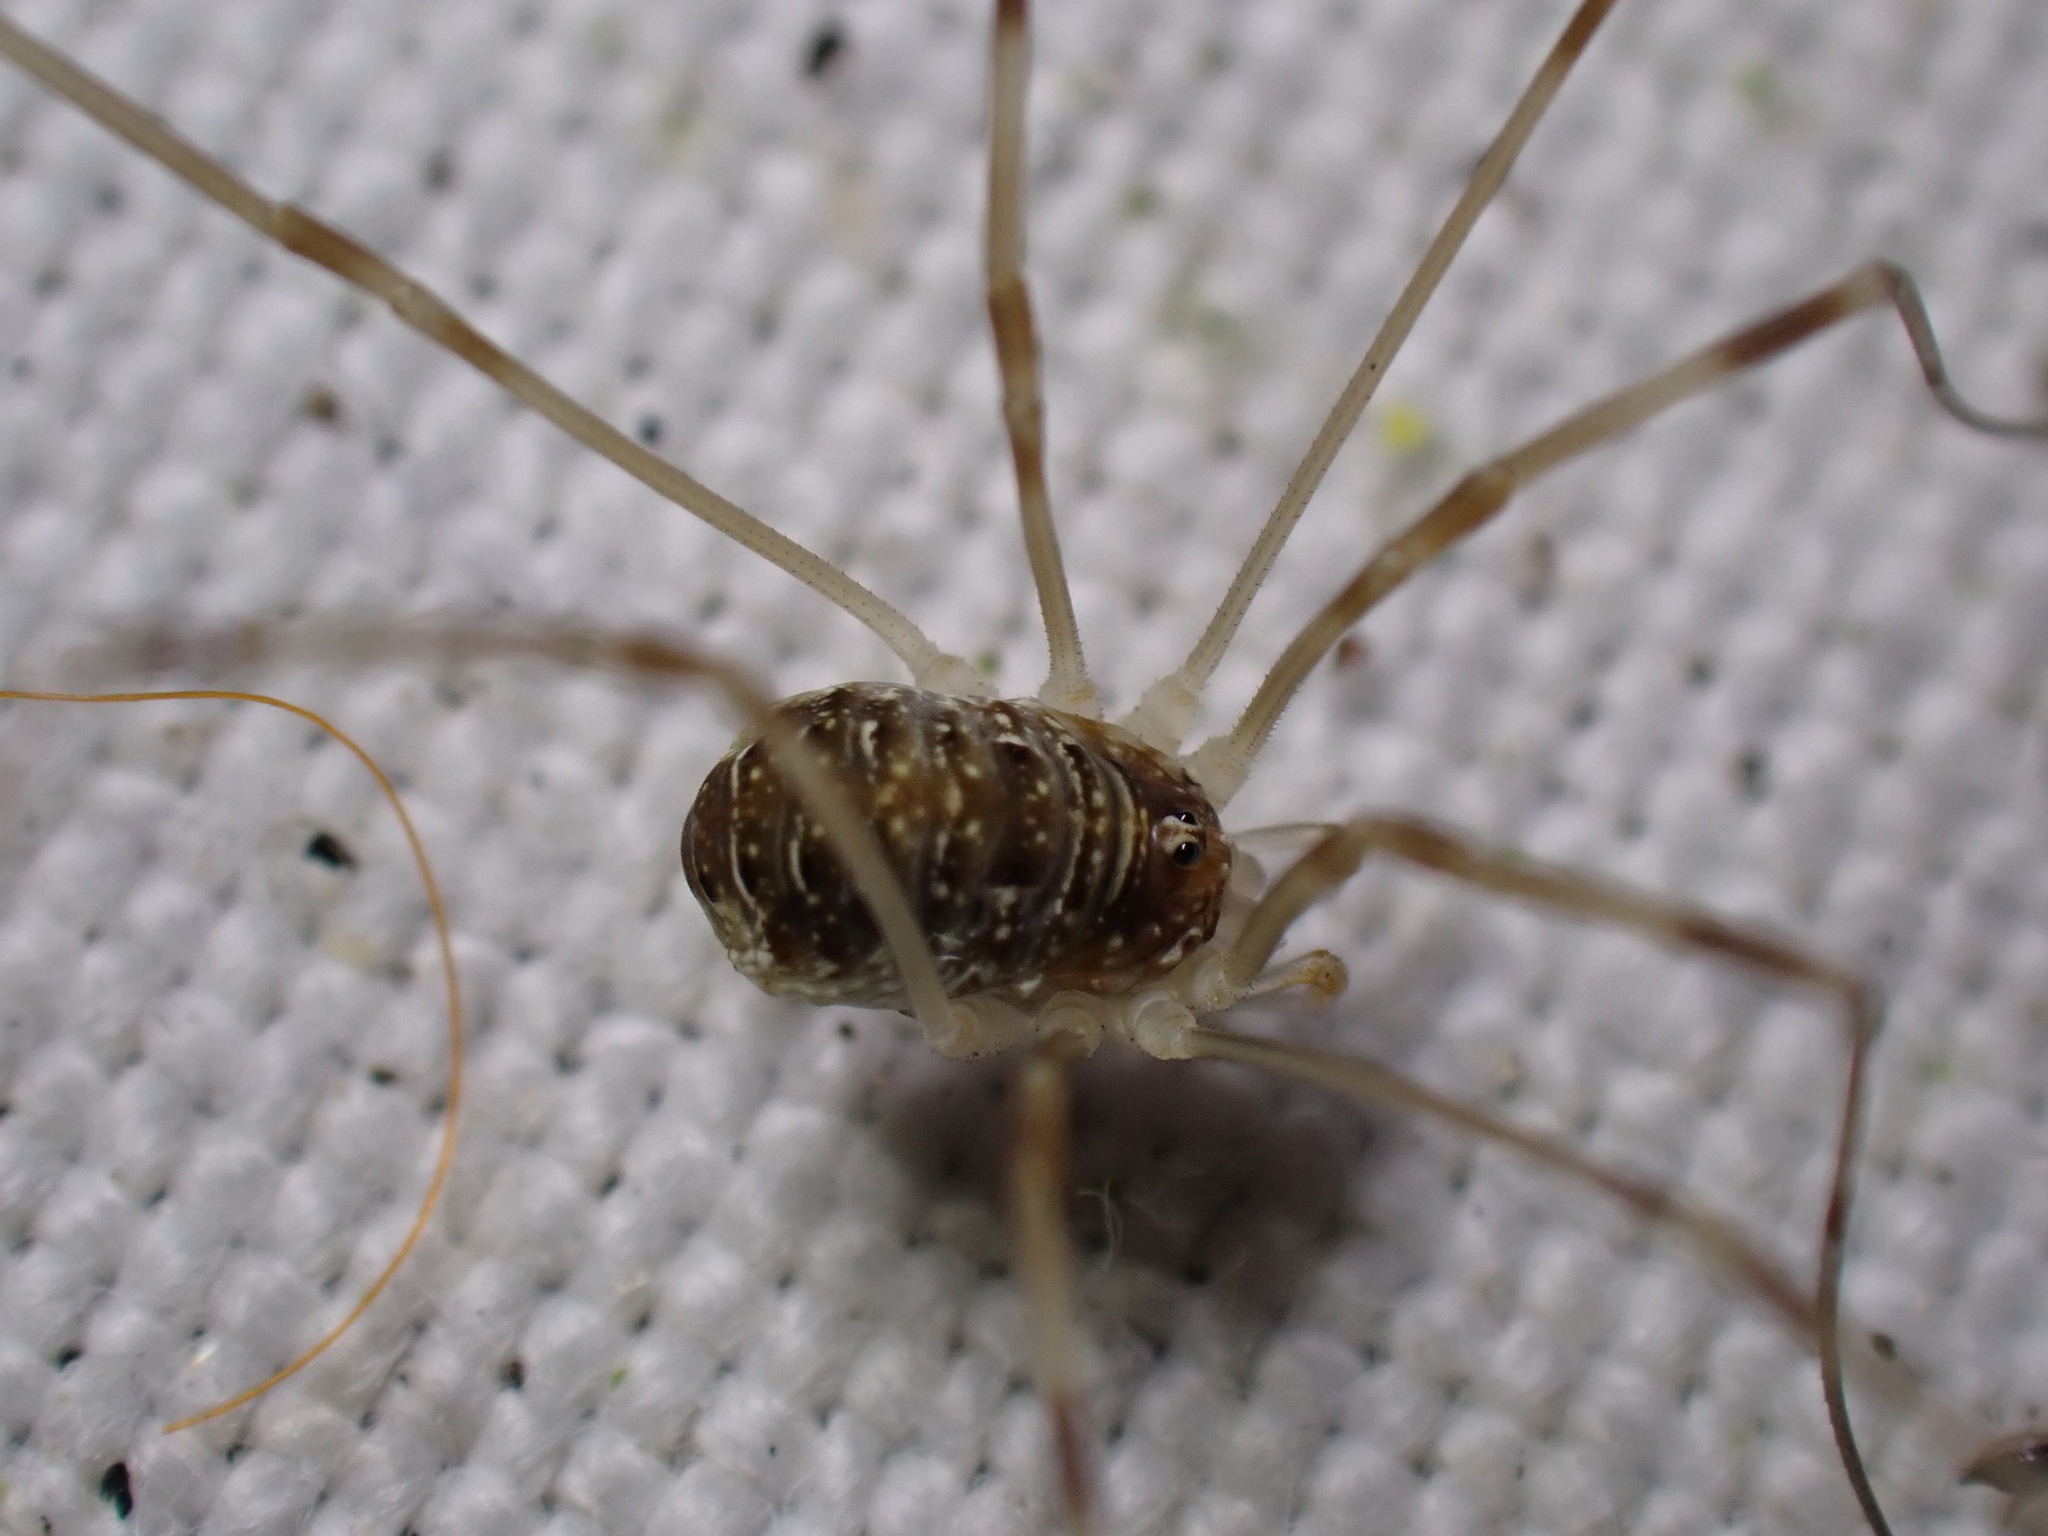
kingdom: Animalia
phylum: Arthropoda
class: Arachnida
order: Opiliones
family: Phalangiidae
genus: Opilio
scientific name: Opilio canestrinii
